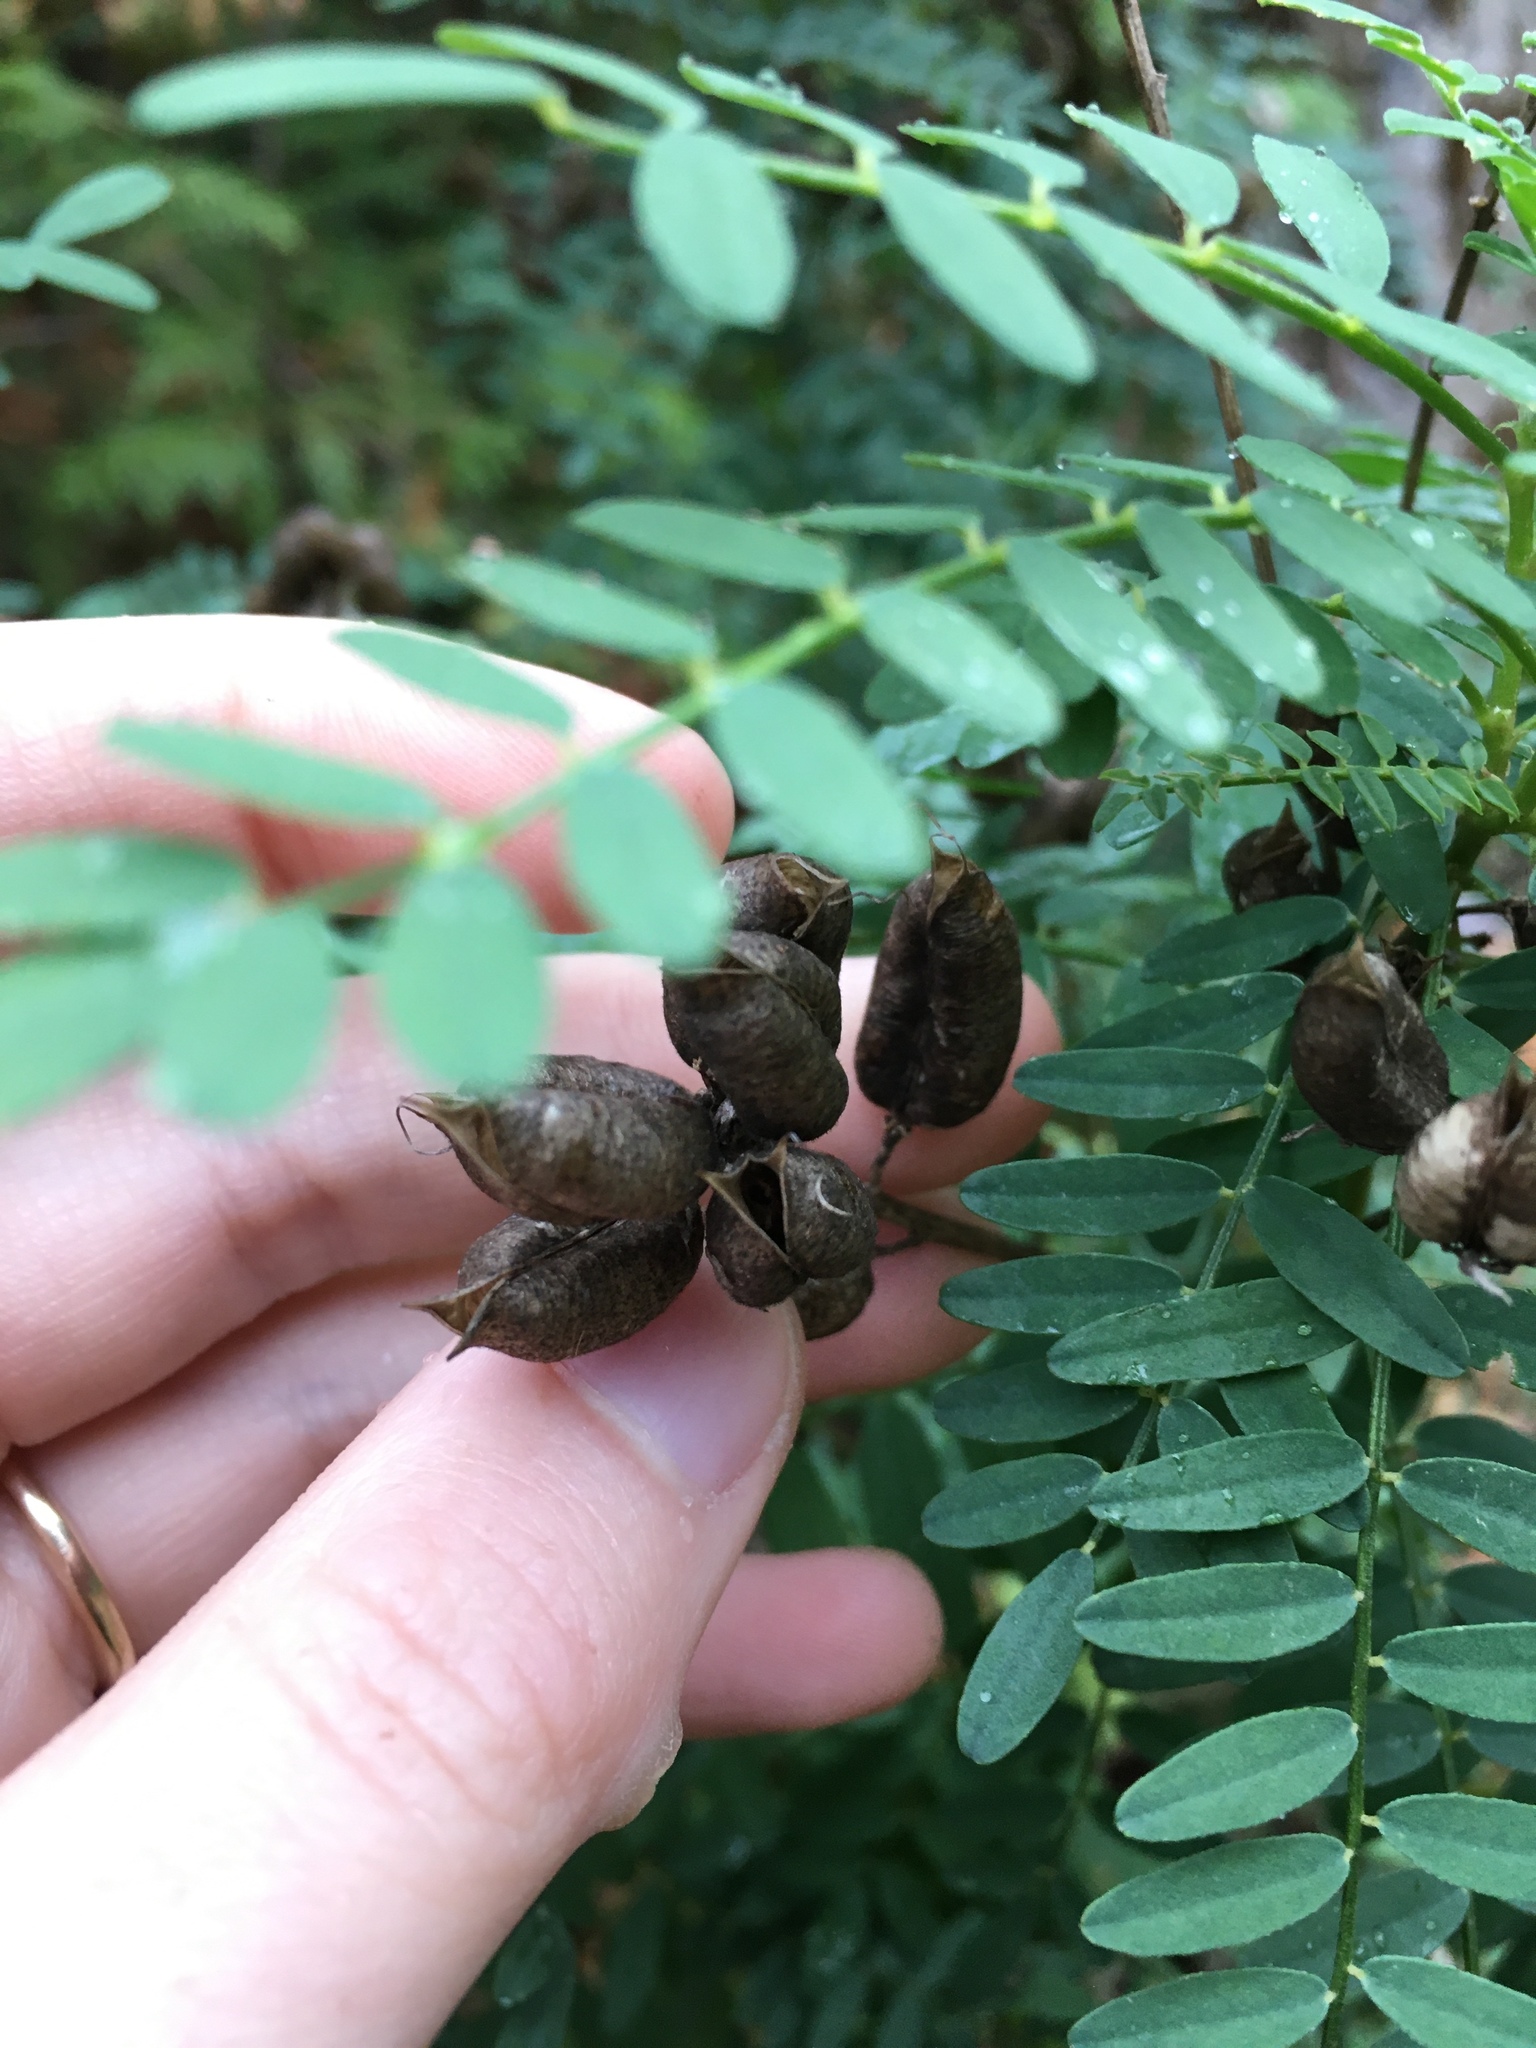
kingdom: Plantae
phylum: Tracheophyta
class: Magnoliopsida
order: Fabales
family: Fabaceae
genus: Astragalus
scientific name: Astragalus neglectus
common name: Cooper's milk-vetch
